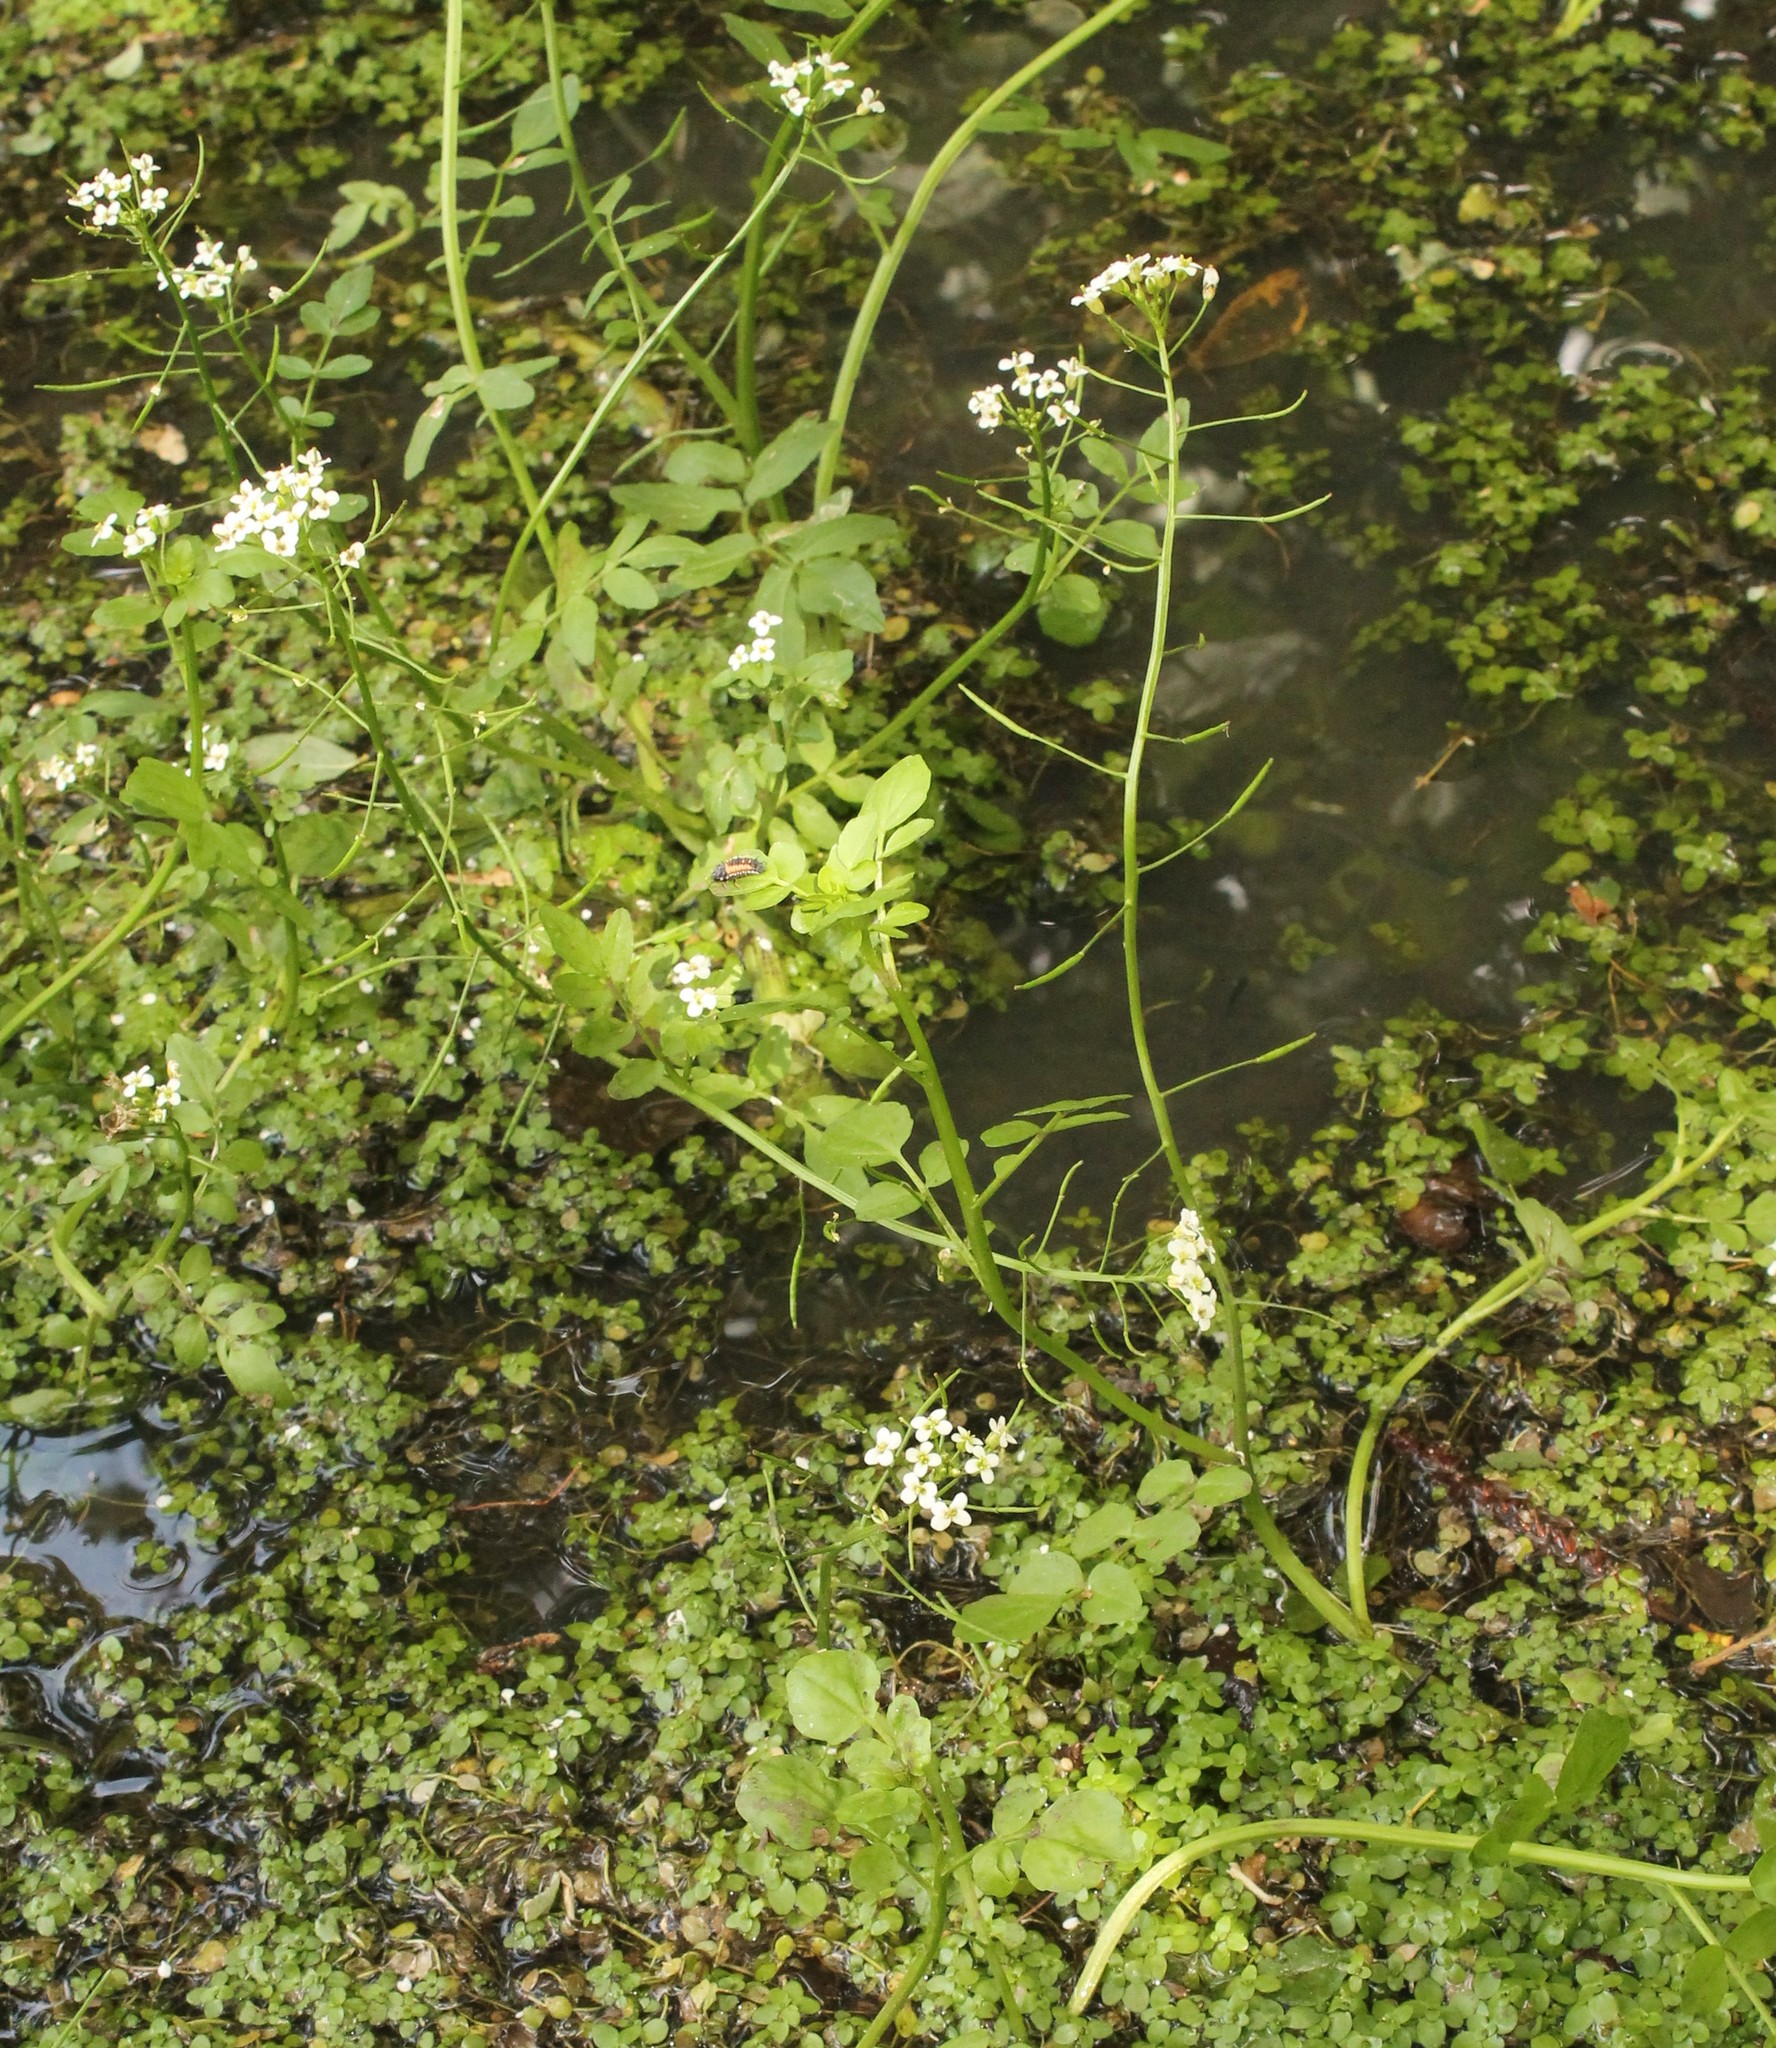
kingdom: Plantae
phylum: Tracheophyta
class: Magnoliopsida
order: Brassicales
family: Brassicaceae
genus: Nasturtium
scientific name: Nasturtium officinale
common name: Watercress
